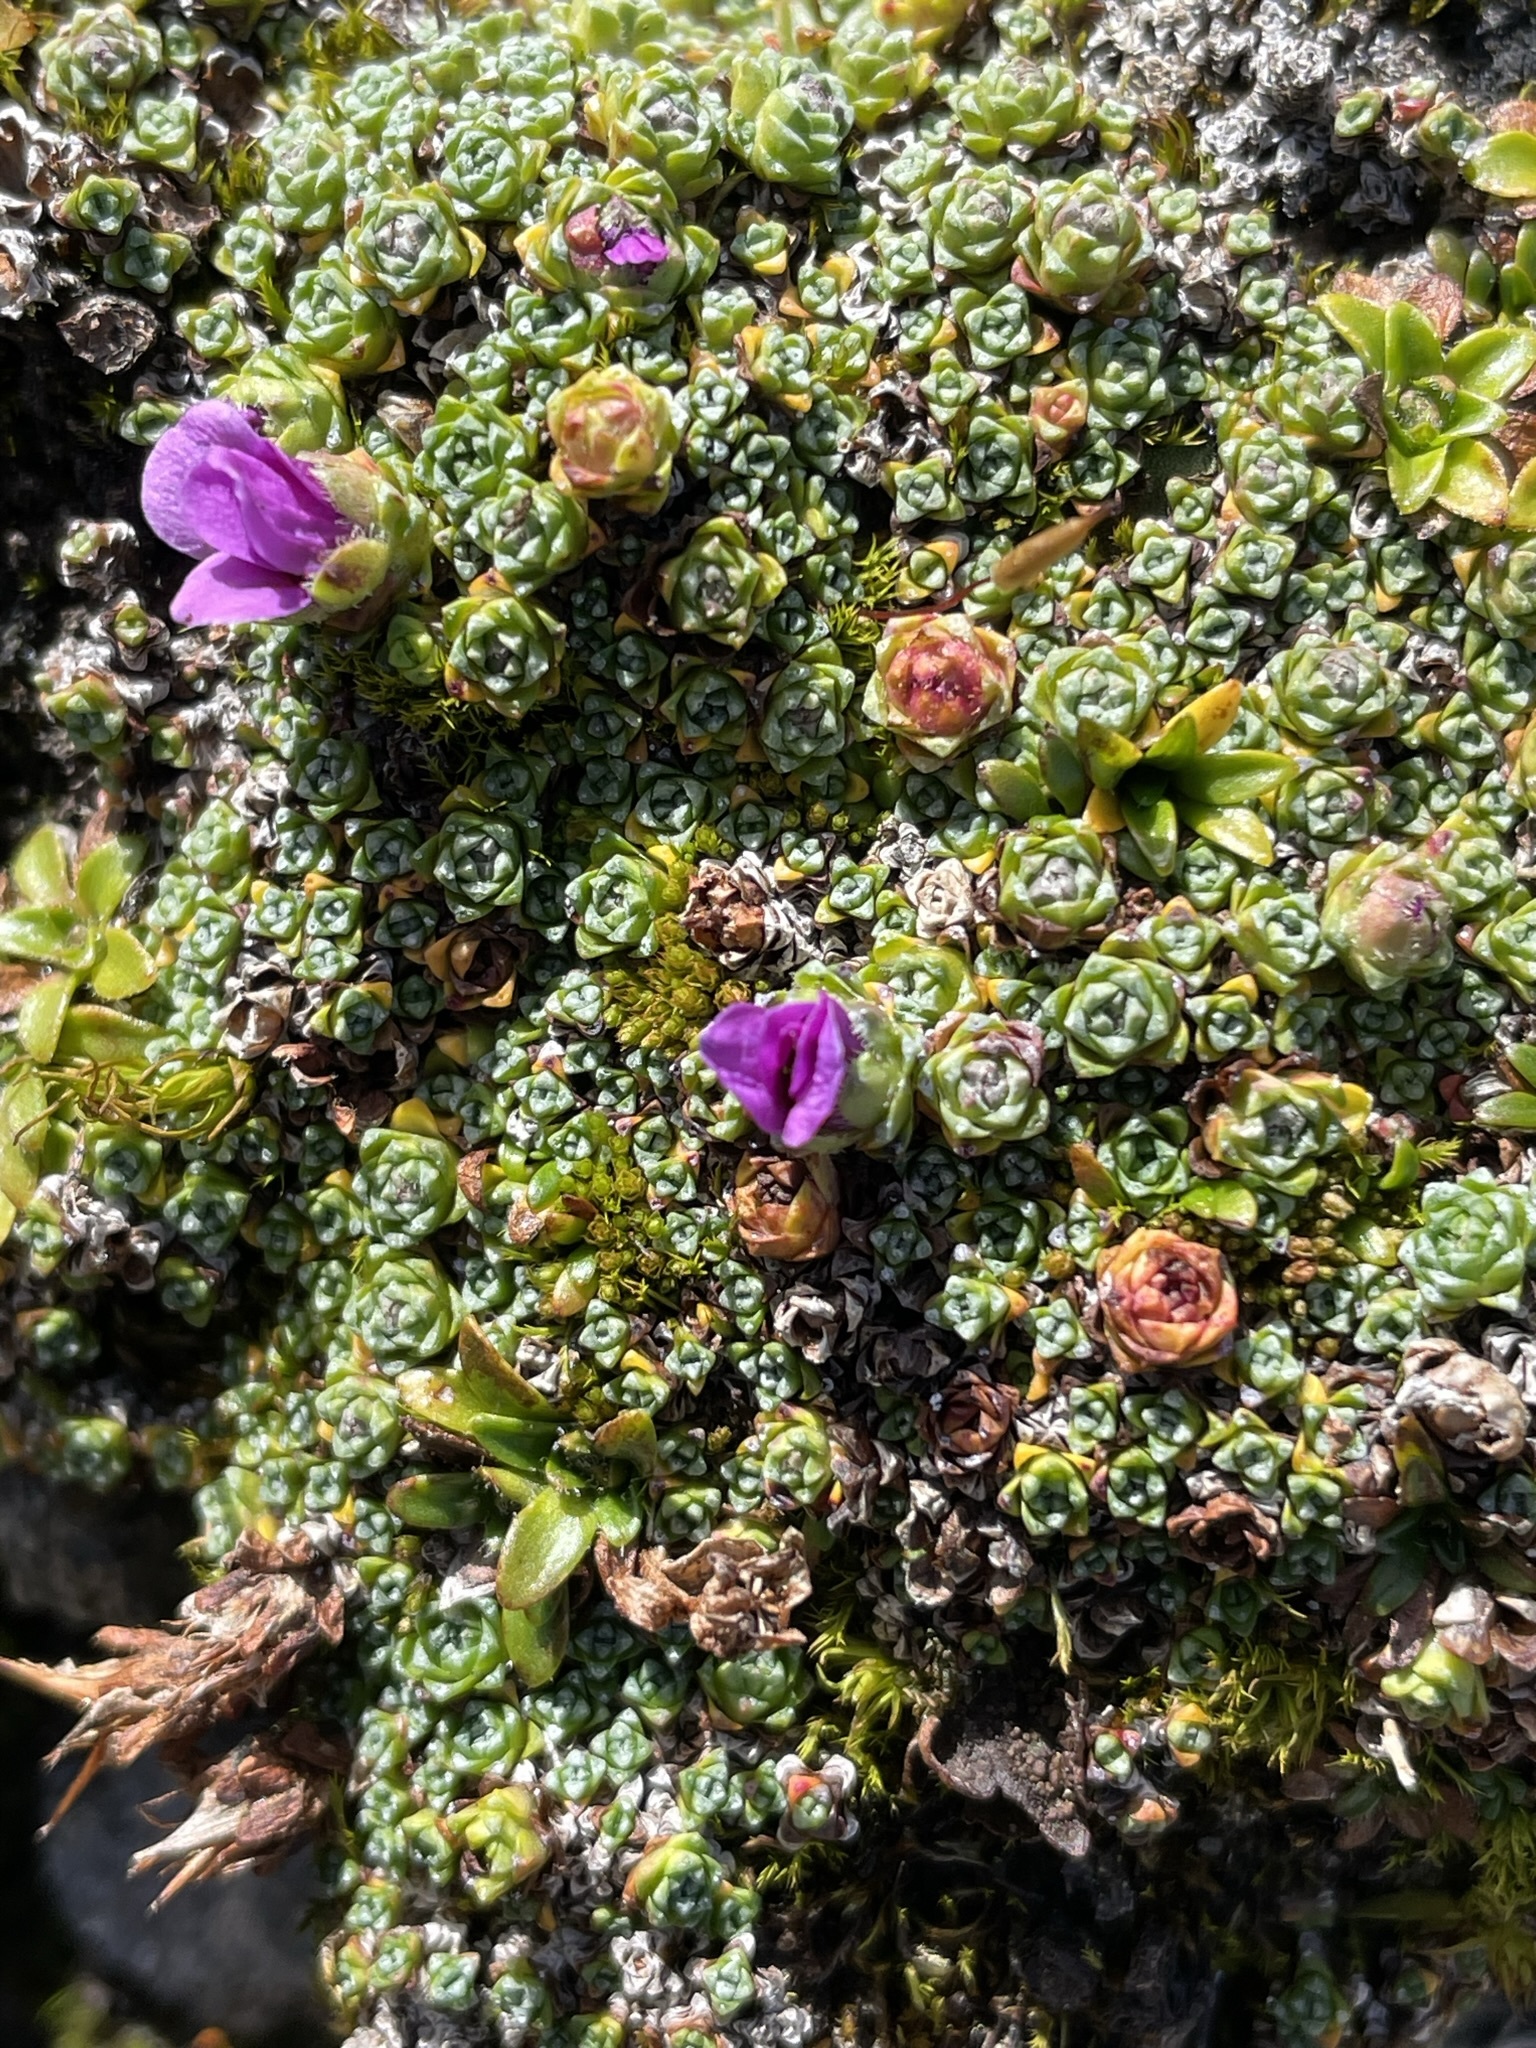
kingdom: Plantae
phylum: Tracheophyta
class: Magnoliopsida
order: Saxifragales
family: Saxifragaceae
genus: Saxifraga
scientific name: Saxifraga oppositifolia
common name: Purple saxifrage
